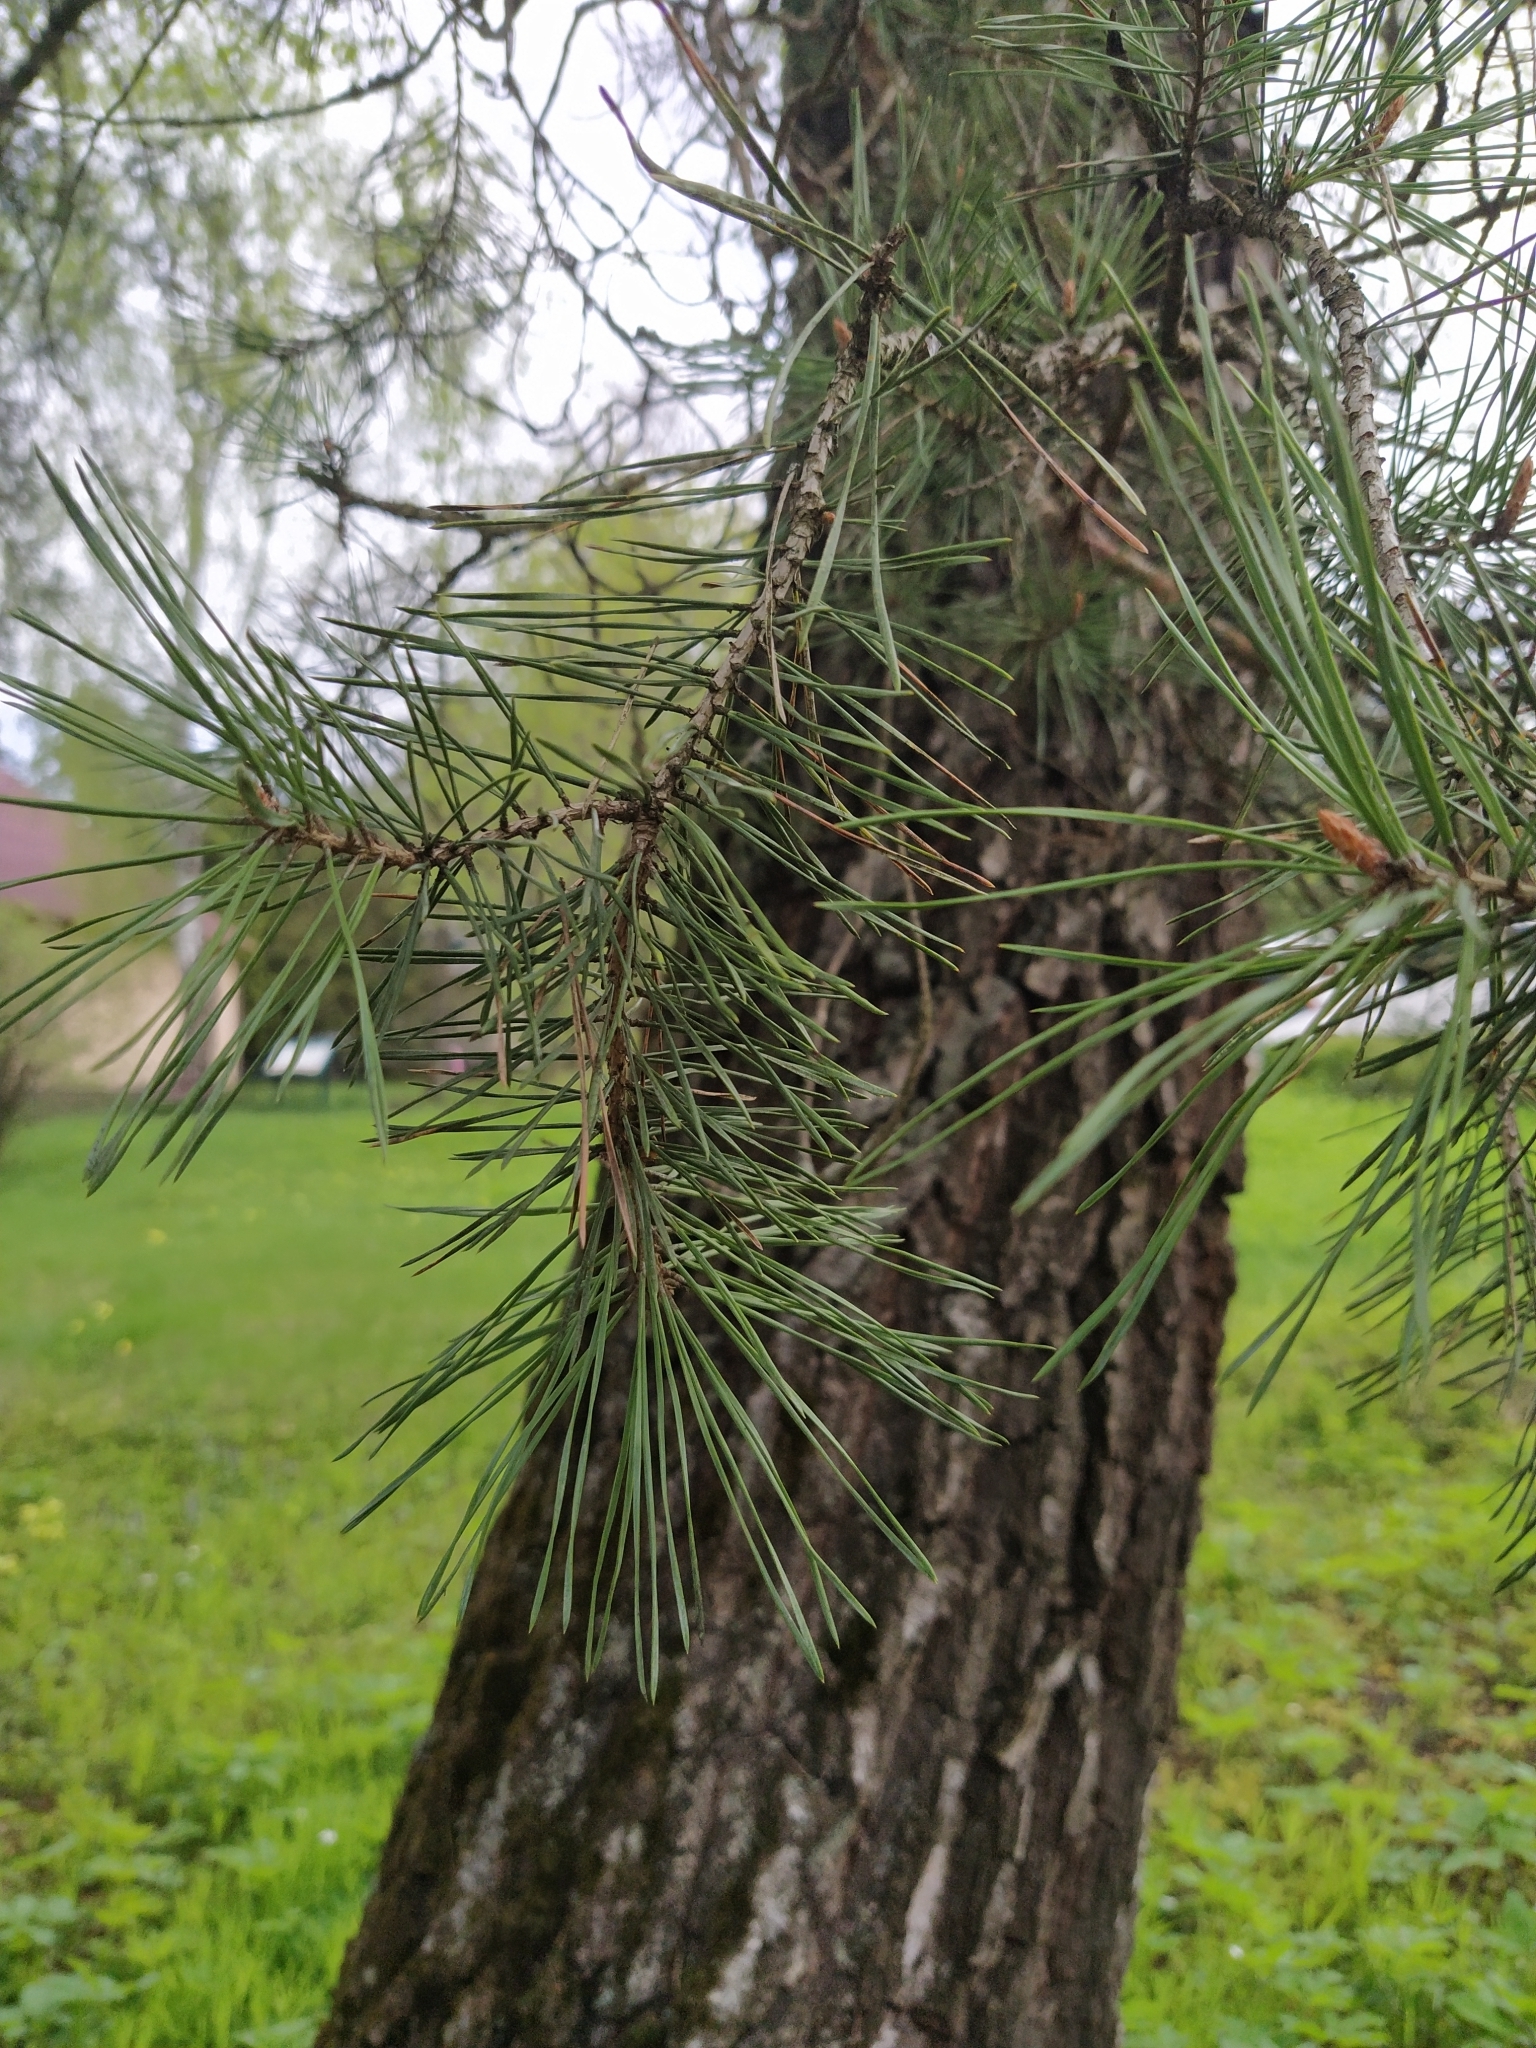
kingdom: Plantae
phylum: Tracheophyta
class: Pinopsida
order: Pinales
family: Pinaceae
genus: Pinus
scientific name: Pinus sylvestris
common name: Scots pine
